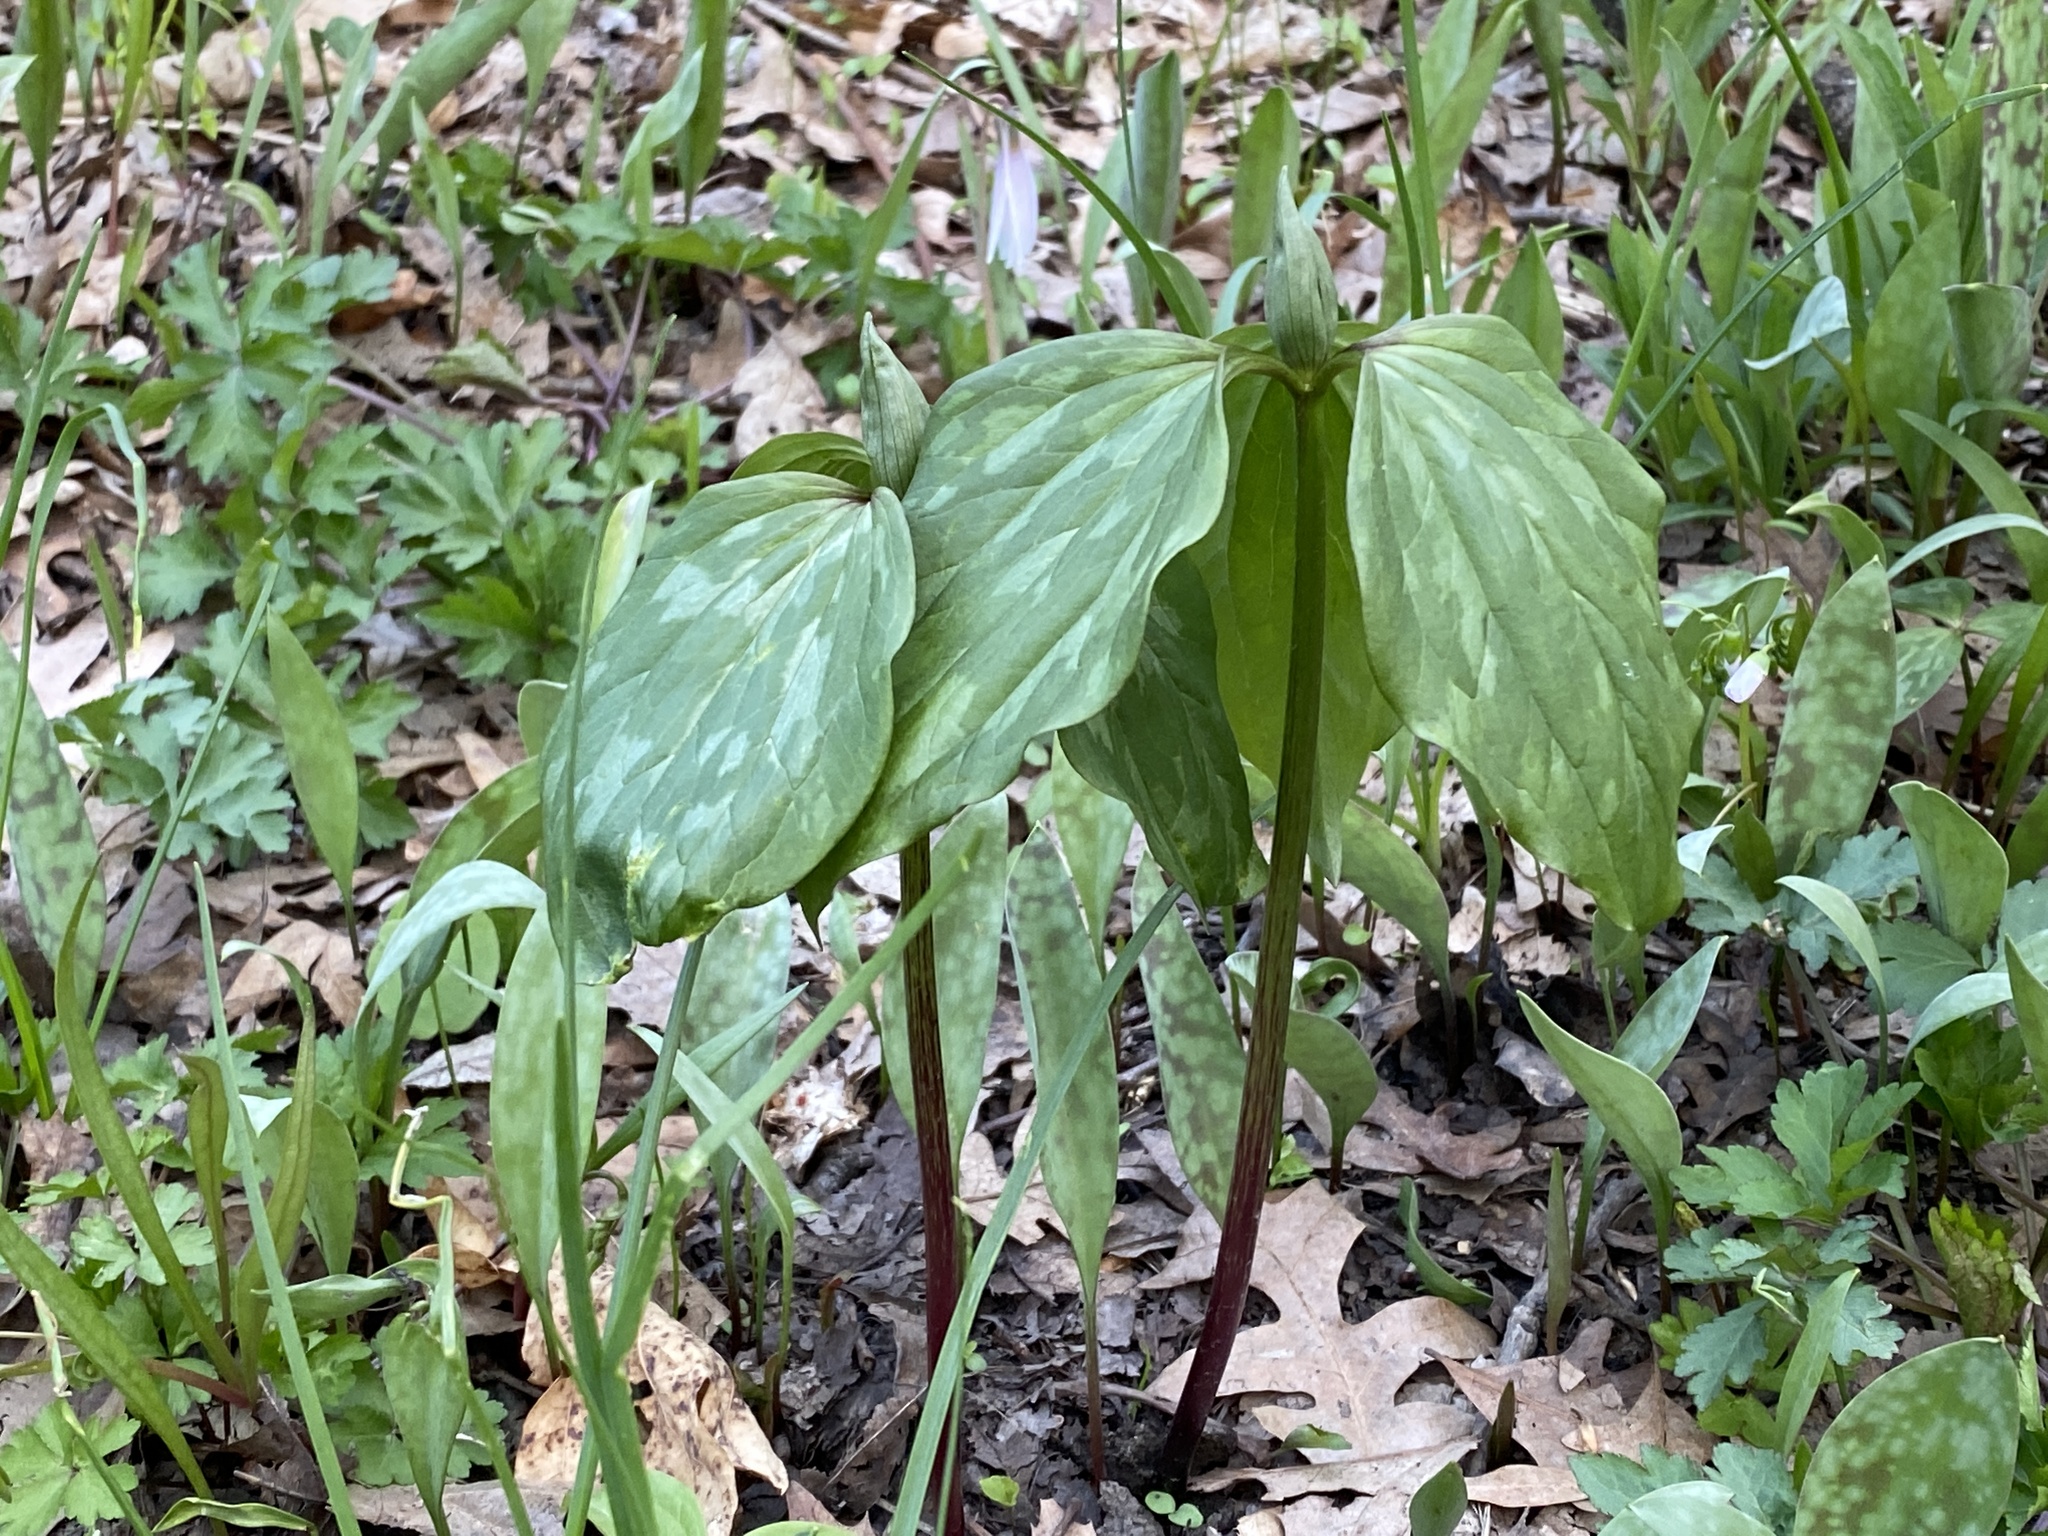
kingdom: Plantae
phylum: Tracheophyta
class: Liliopsida
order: Liliales
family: Melanthiaceae
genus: Trillium
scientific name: Trillium recurvatum
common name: Bloody butcher
